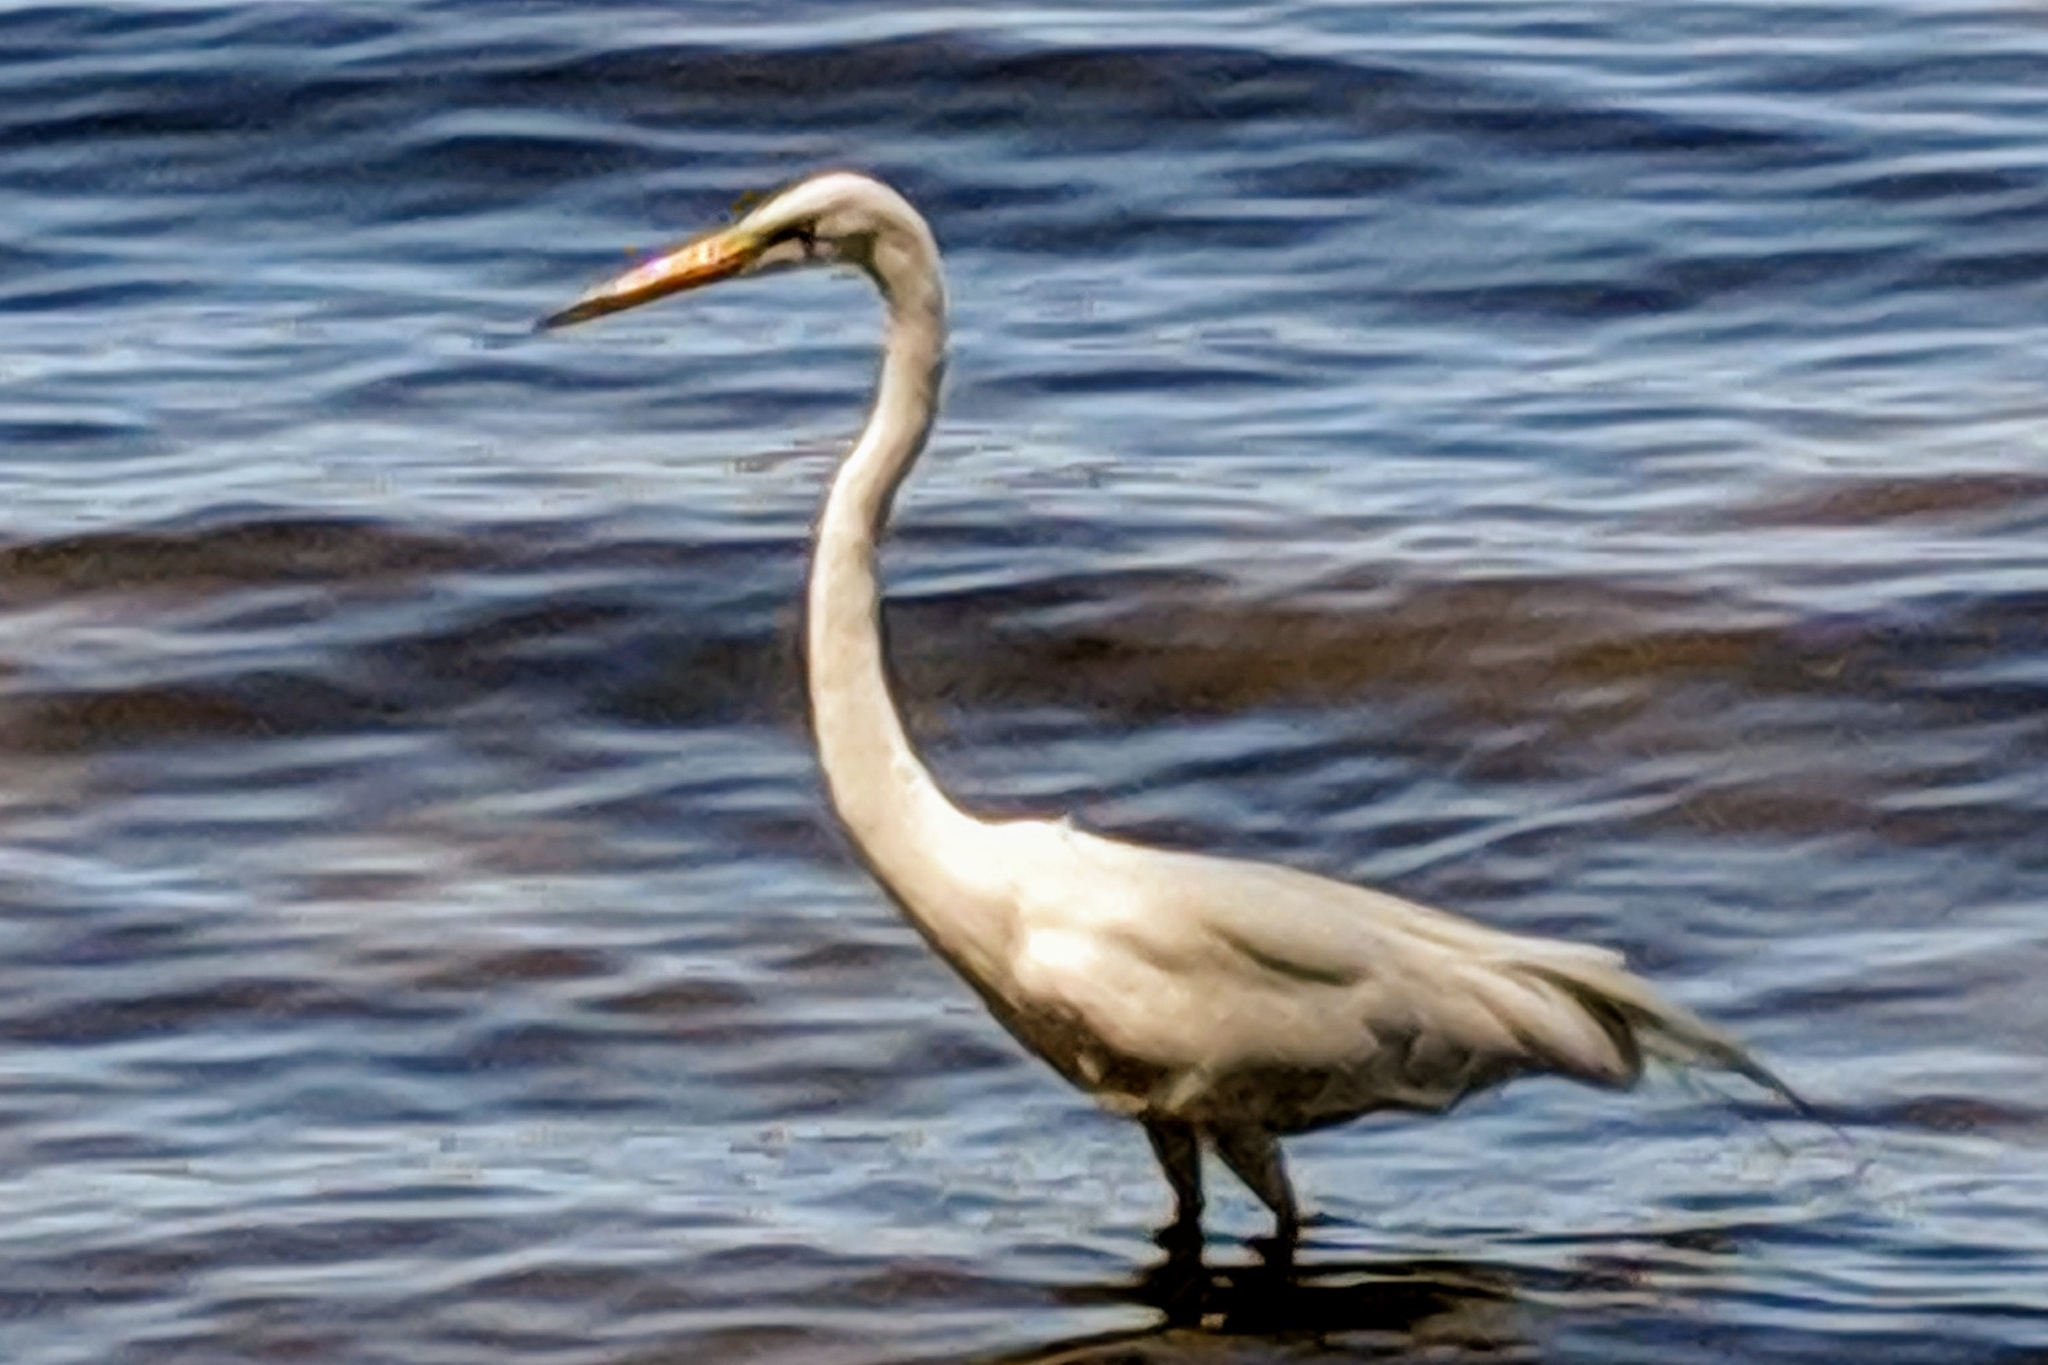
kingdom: Animalia
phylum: Chordata
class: Aves
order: Pelecaniformes
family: Ardeidae
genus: Ardea
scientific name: Ardea alba
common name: Great egret
